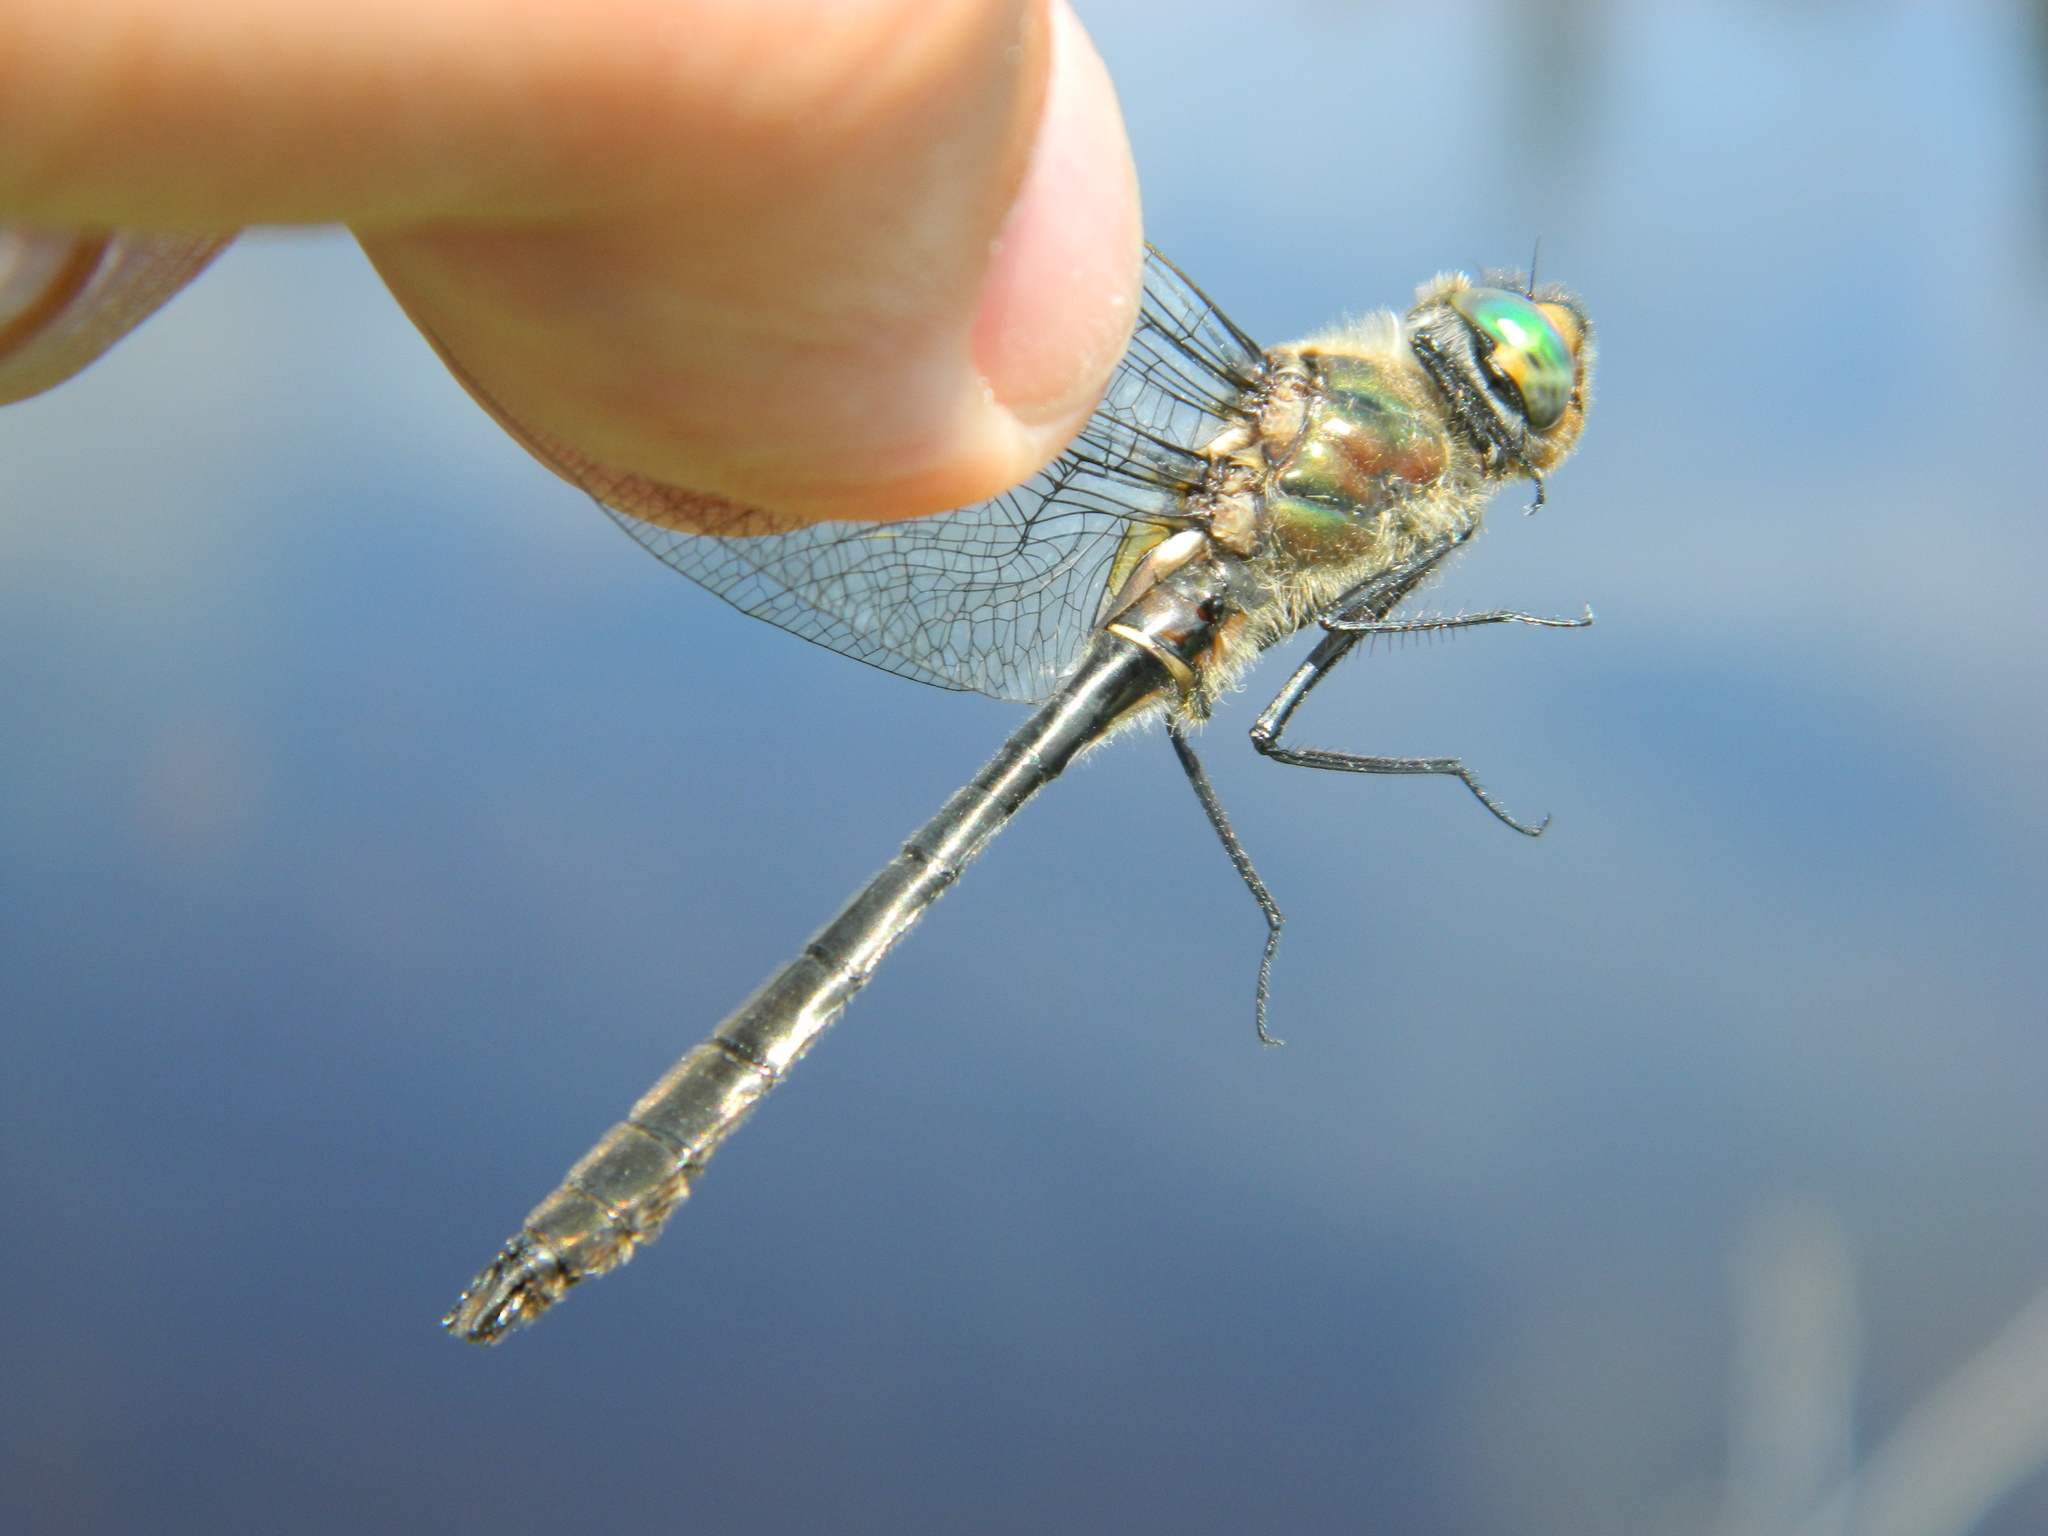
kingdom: Animalia
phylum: Arthropoda
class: Insecta
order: Odonata
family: Corduliidae
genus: Cordulia
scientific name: Cordulia shurtleffii
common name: American emerald
